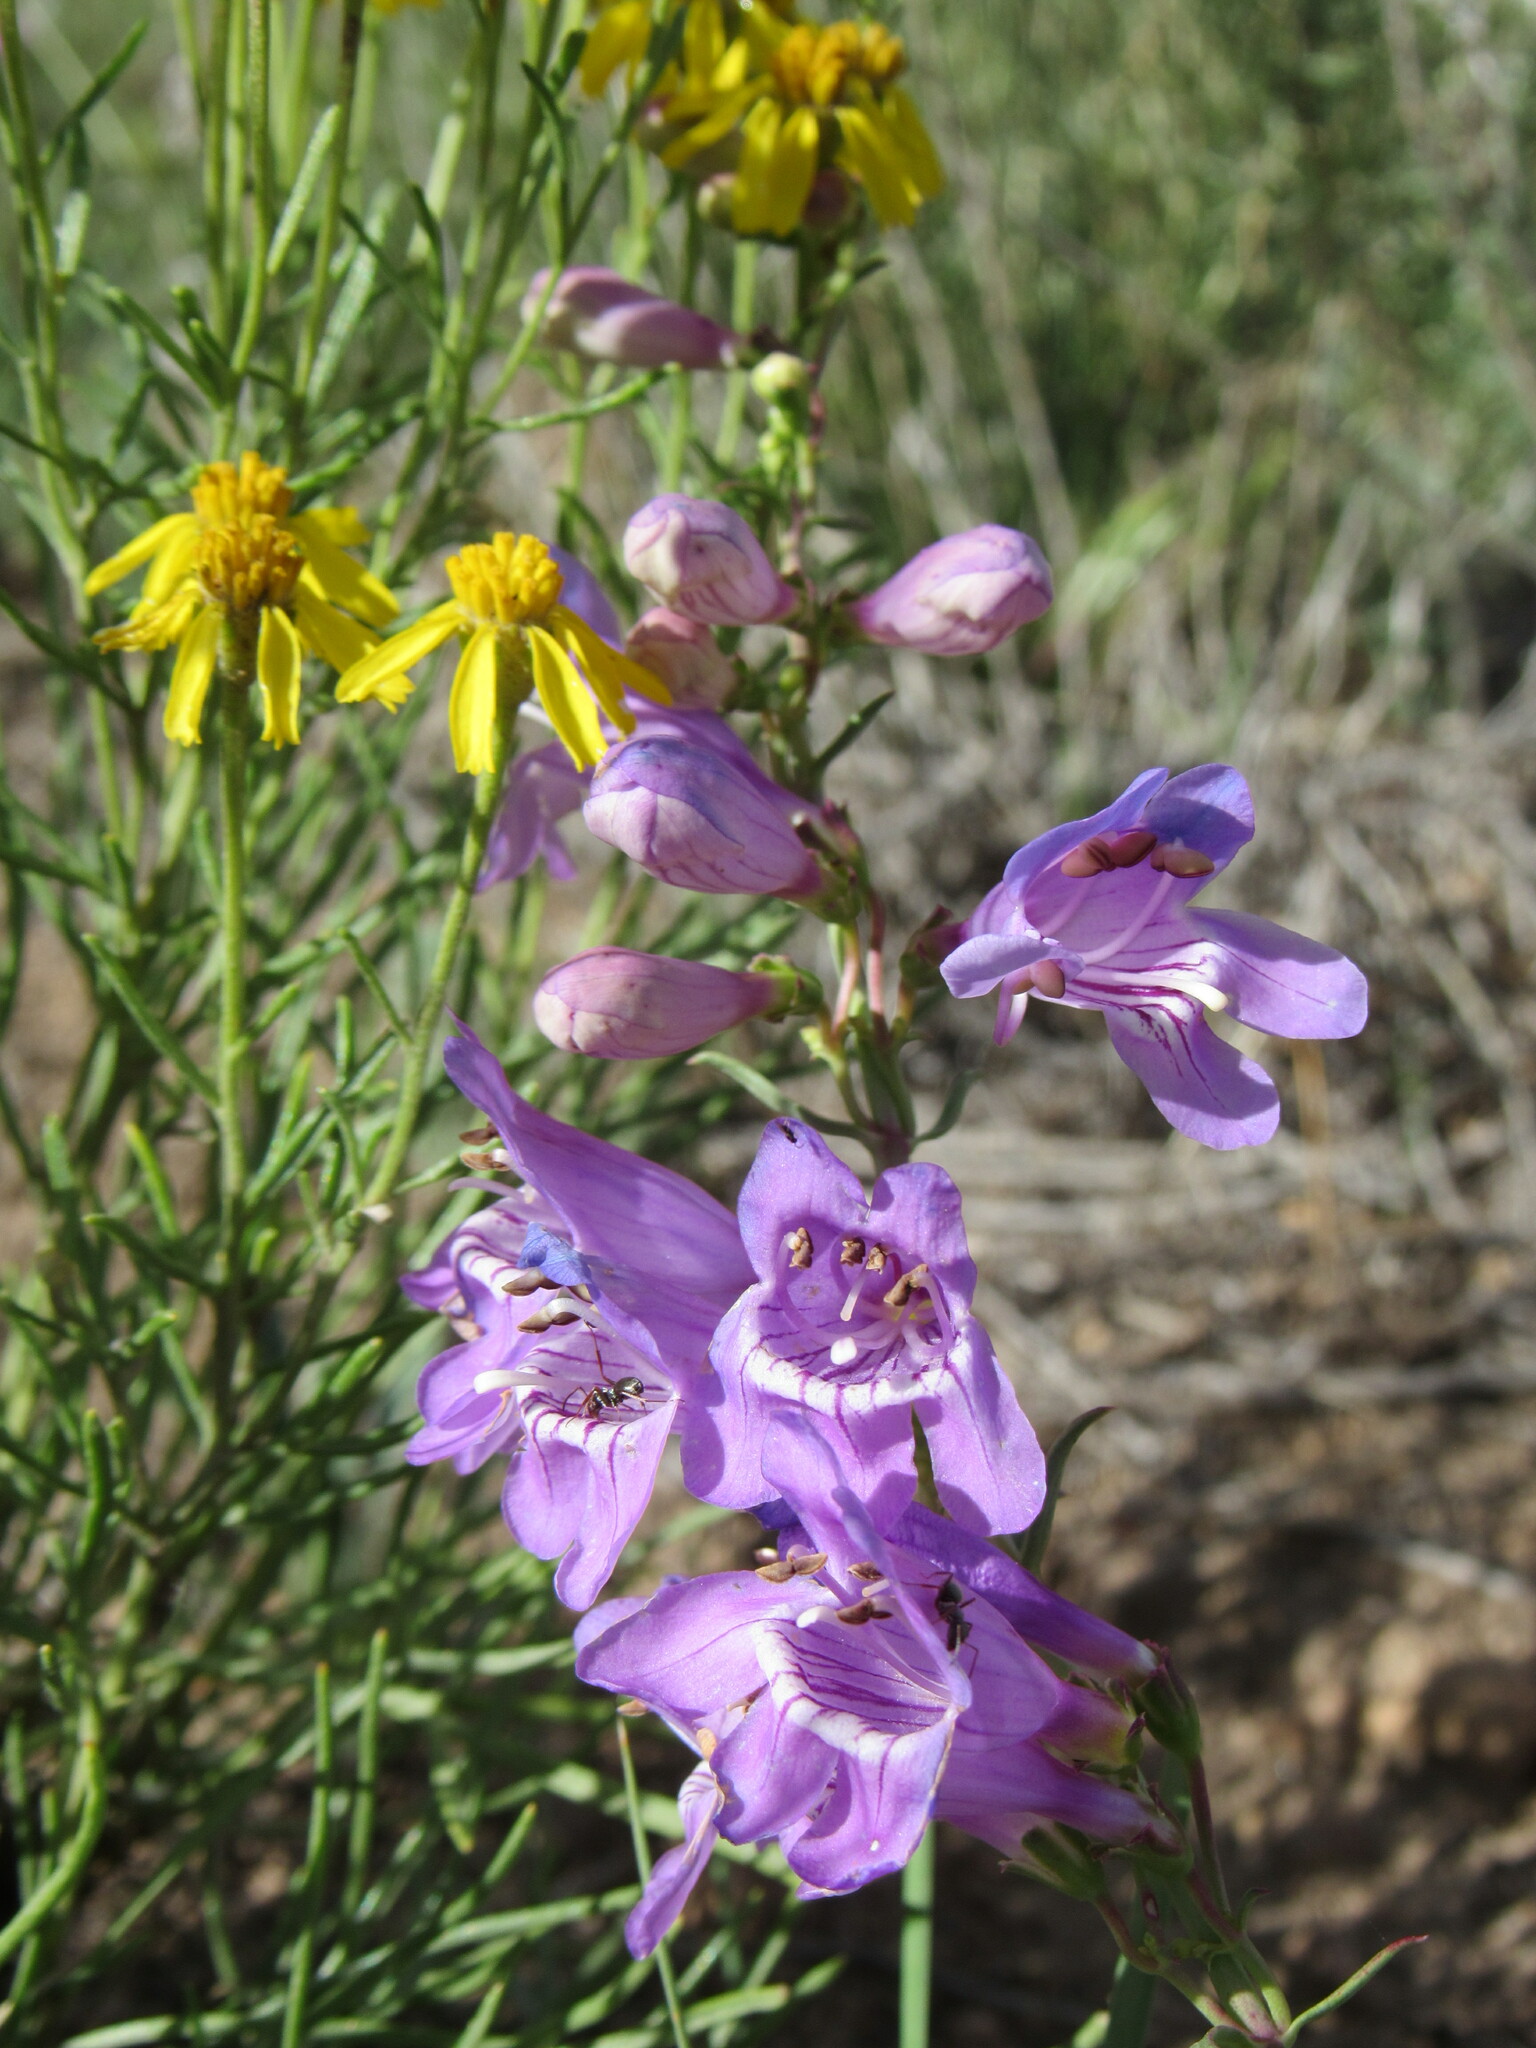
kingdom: Plantae
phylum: Tracheophyta
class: Magnoliopsida
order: Lamiales
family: Plantaginaceae
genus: Penstemon
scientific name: Penstemon virgatus
